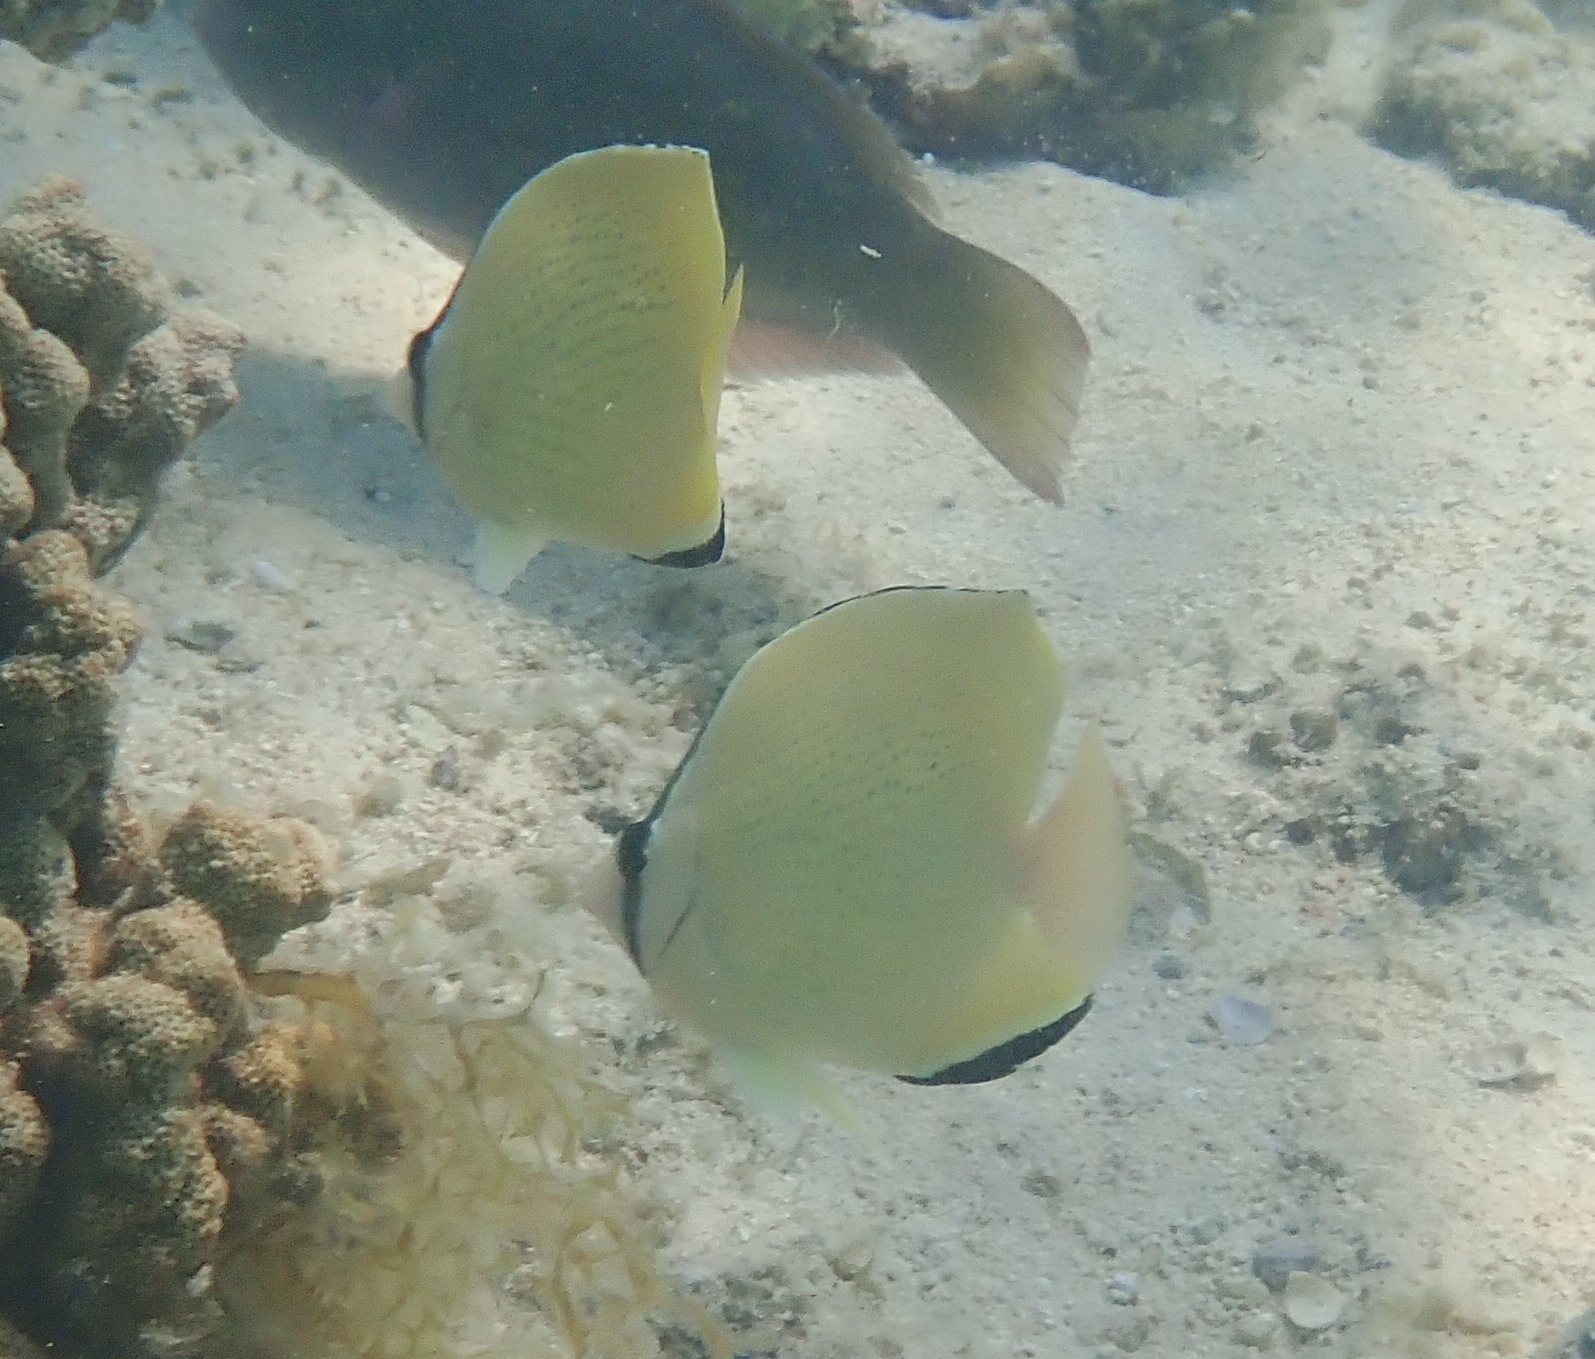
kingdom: Animalia
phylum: Chordata
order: Perciformes
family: Chaetodontidae
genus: Chaetodon
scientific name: Chaetodon citrinellus
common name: Speckled butterflyfish
